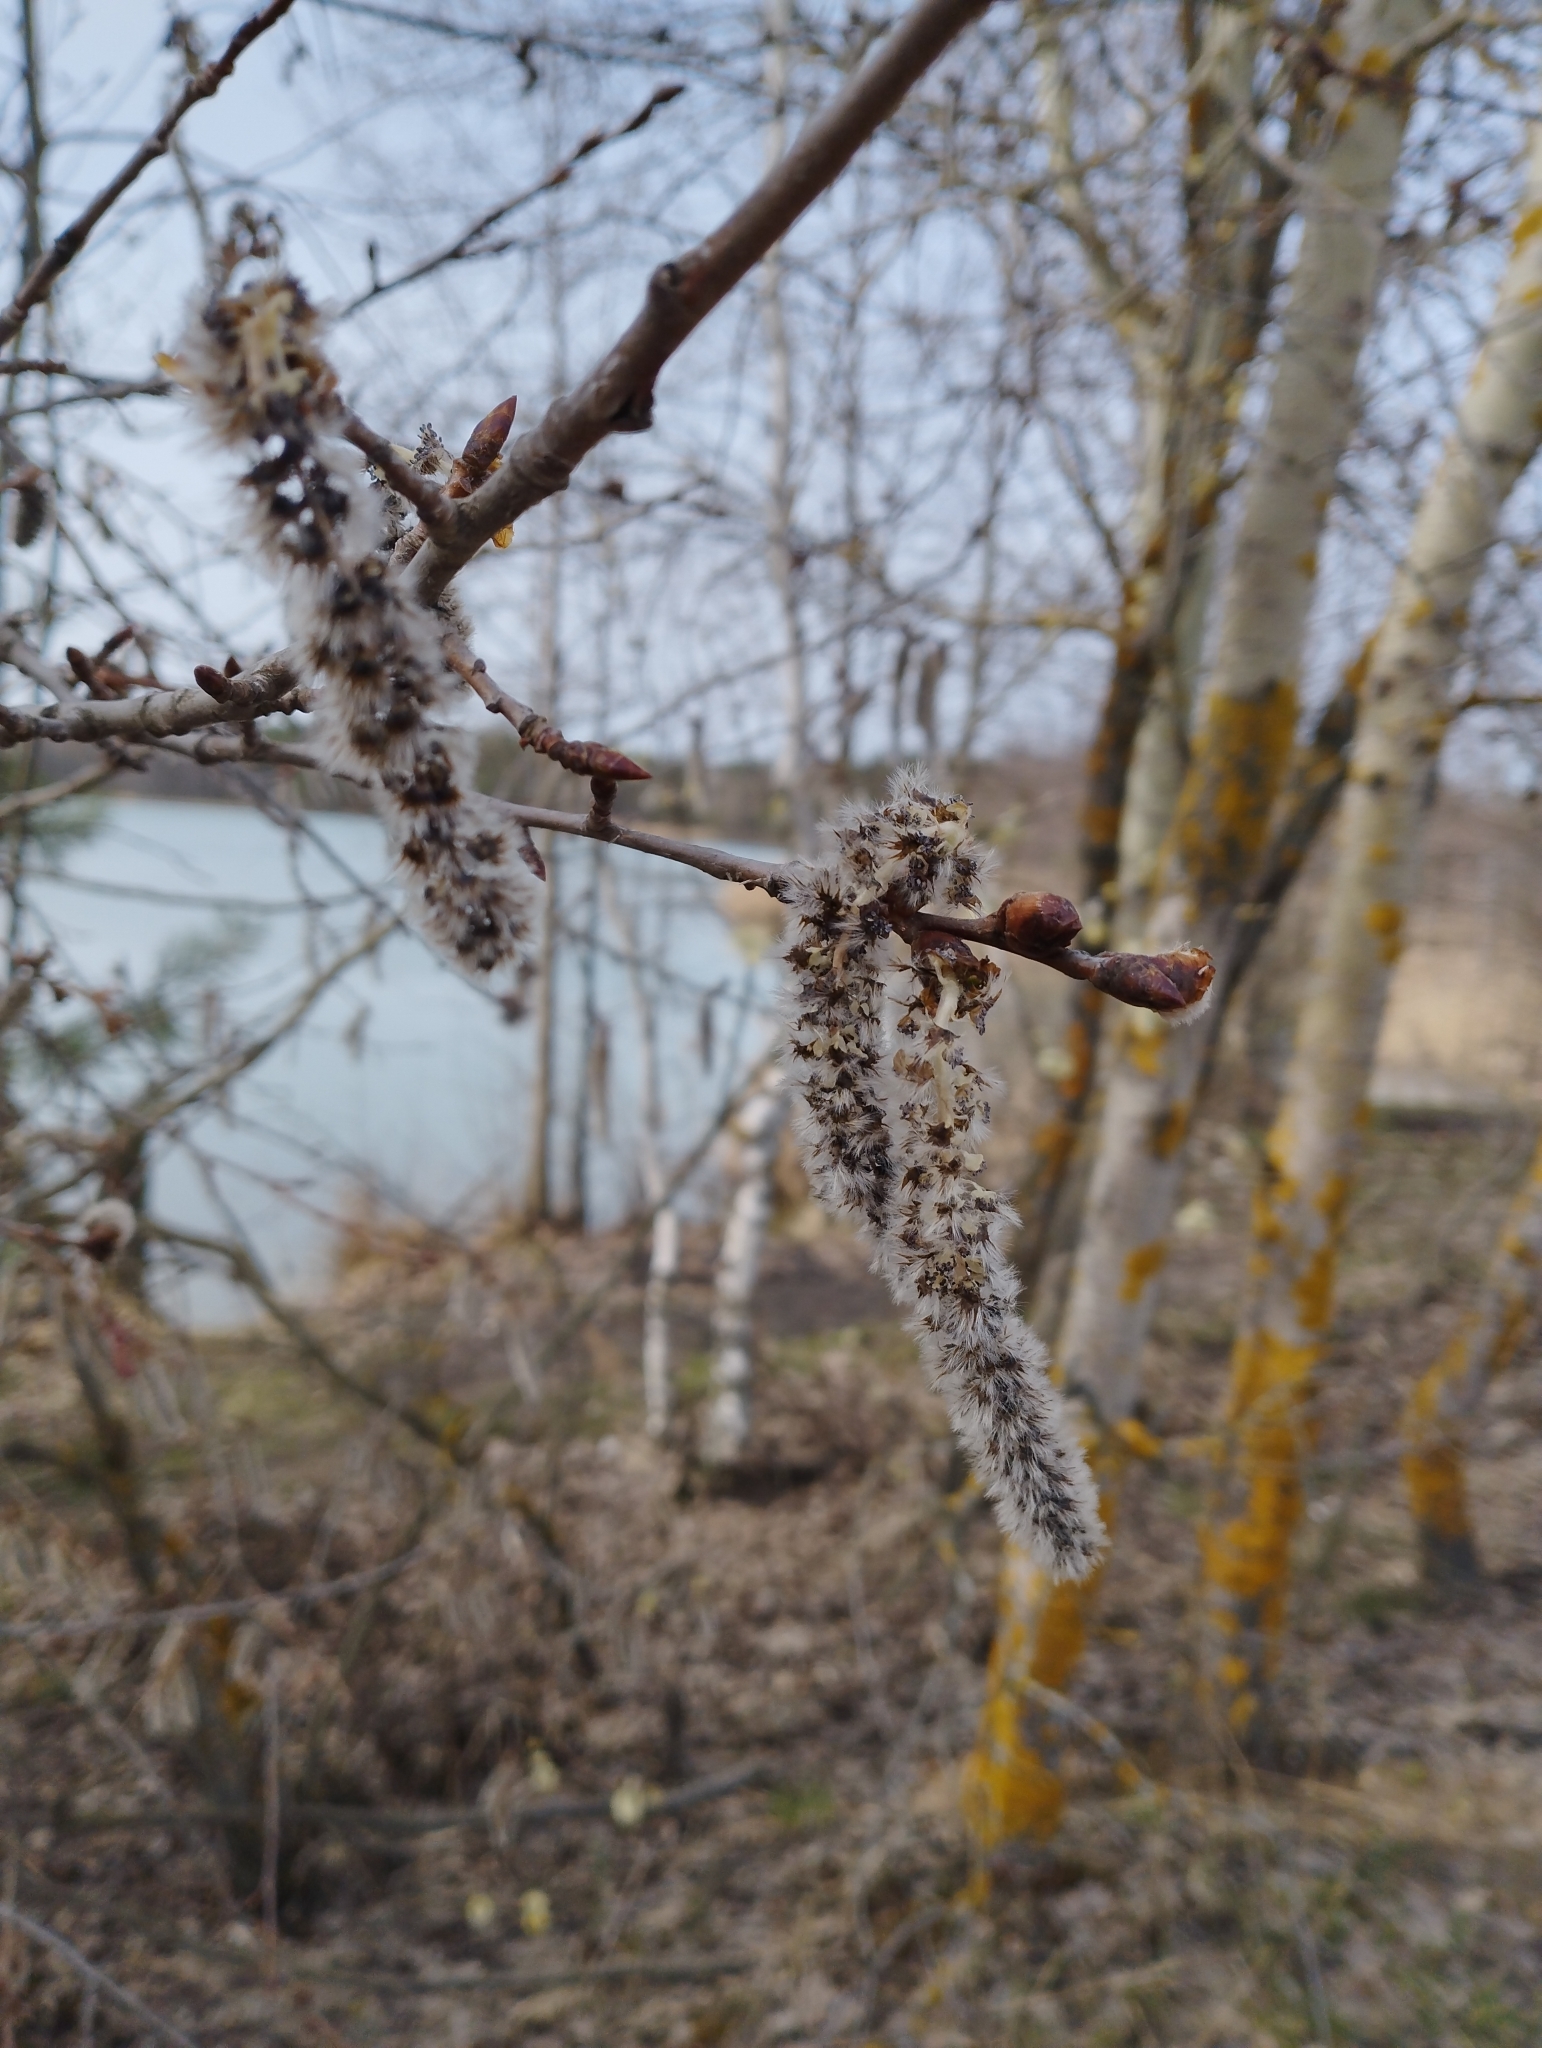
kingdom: Plantae
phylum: Tracheophyta
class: Magnoliopsida
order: Malpighiales
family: Salicaceae
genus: Populus
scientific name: Populus tremula
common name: European aspen
